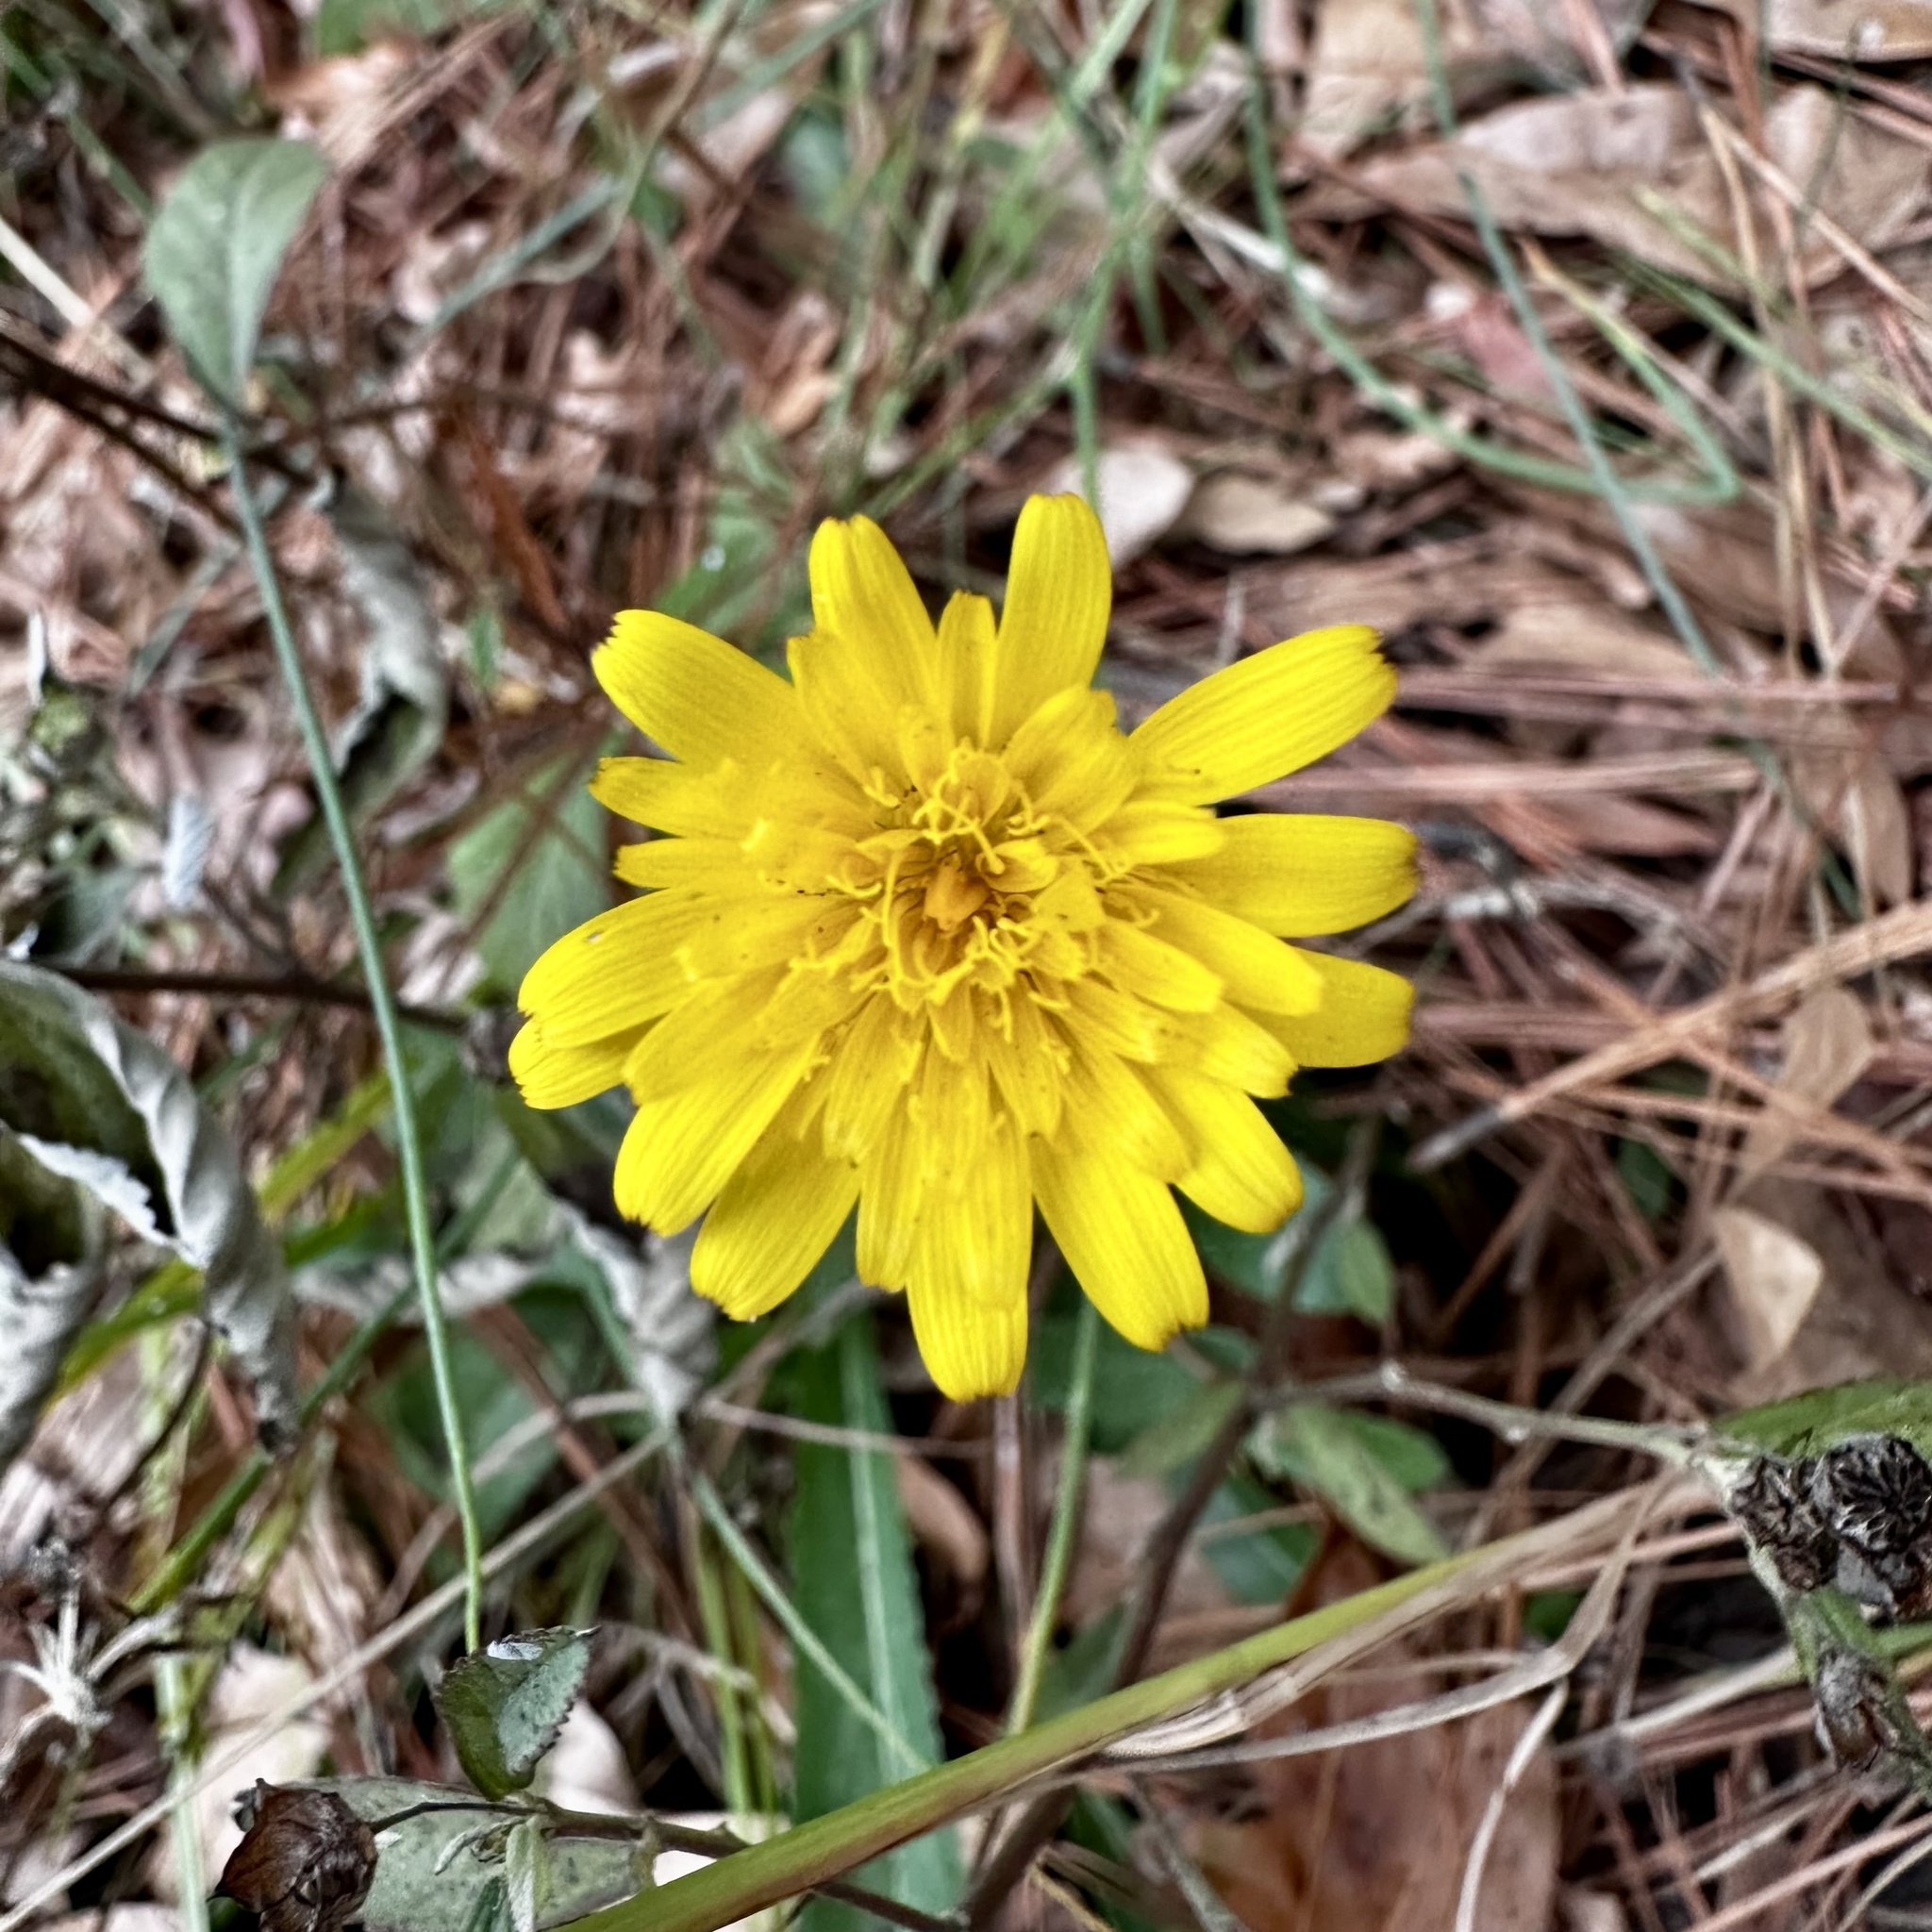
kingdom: Plantae
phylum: Tracheophyta
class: Magnoliopsida
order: Asterales
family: Asteraceae
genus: Hypochaeris
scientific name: Hypochaeris radicata
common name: Flatweed
